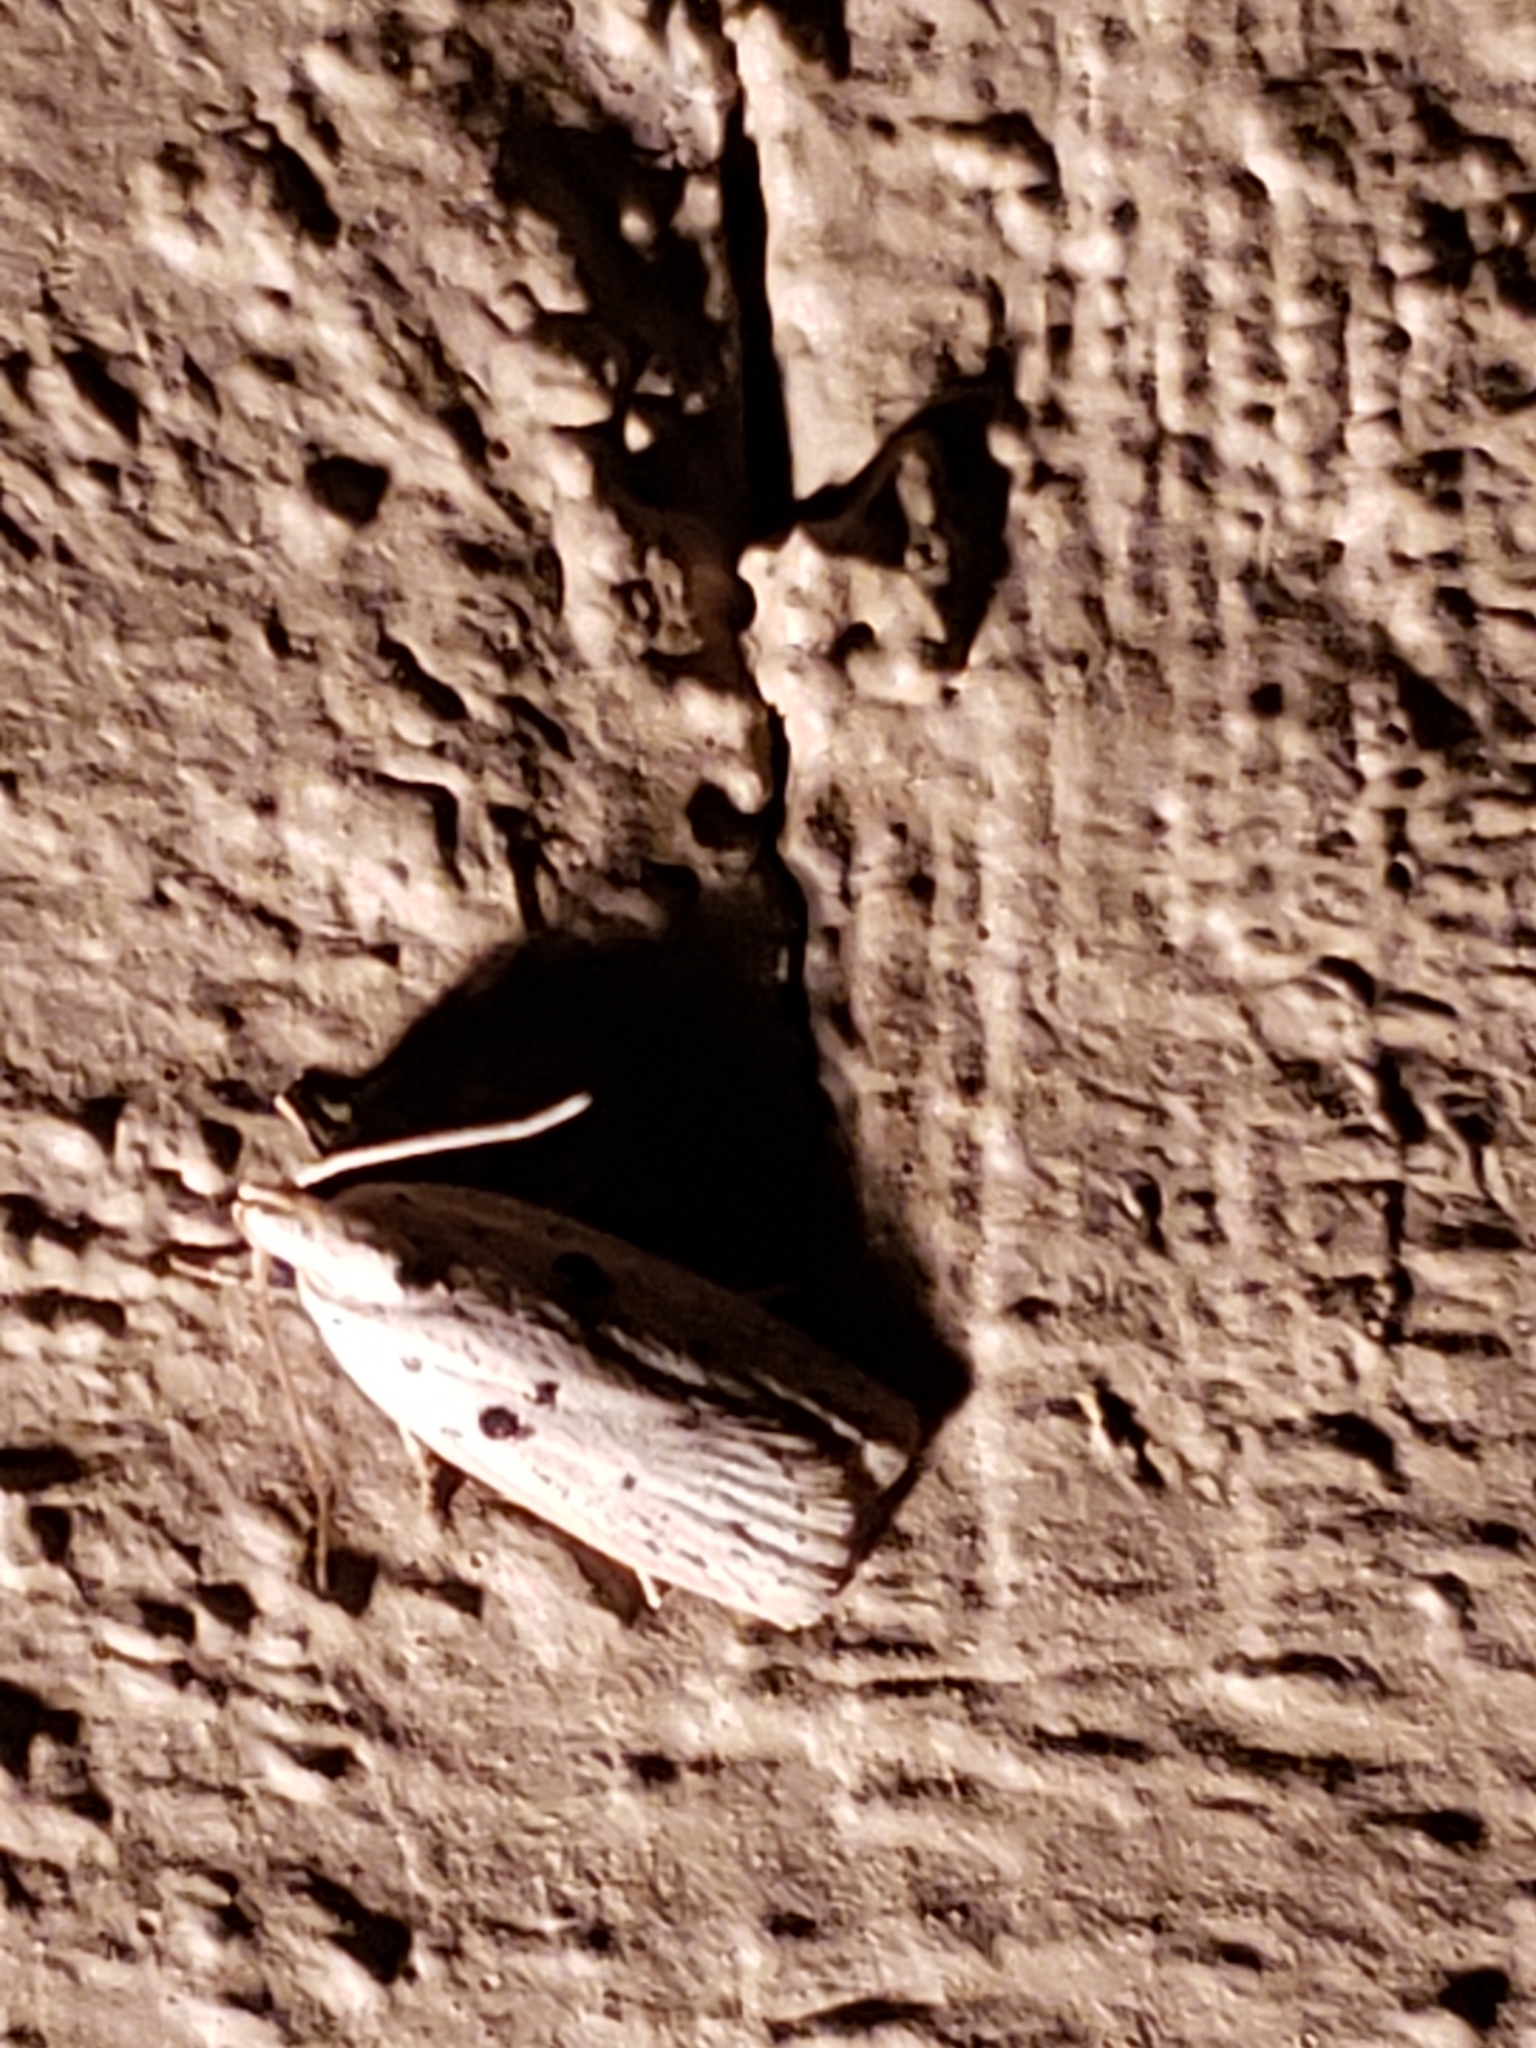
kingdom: Animalia
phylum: Arthropoda
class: Insecta
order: Lepidoptera
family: Peleopodidae
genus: Scythropiodes
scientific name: Scythropiodes issikii
